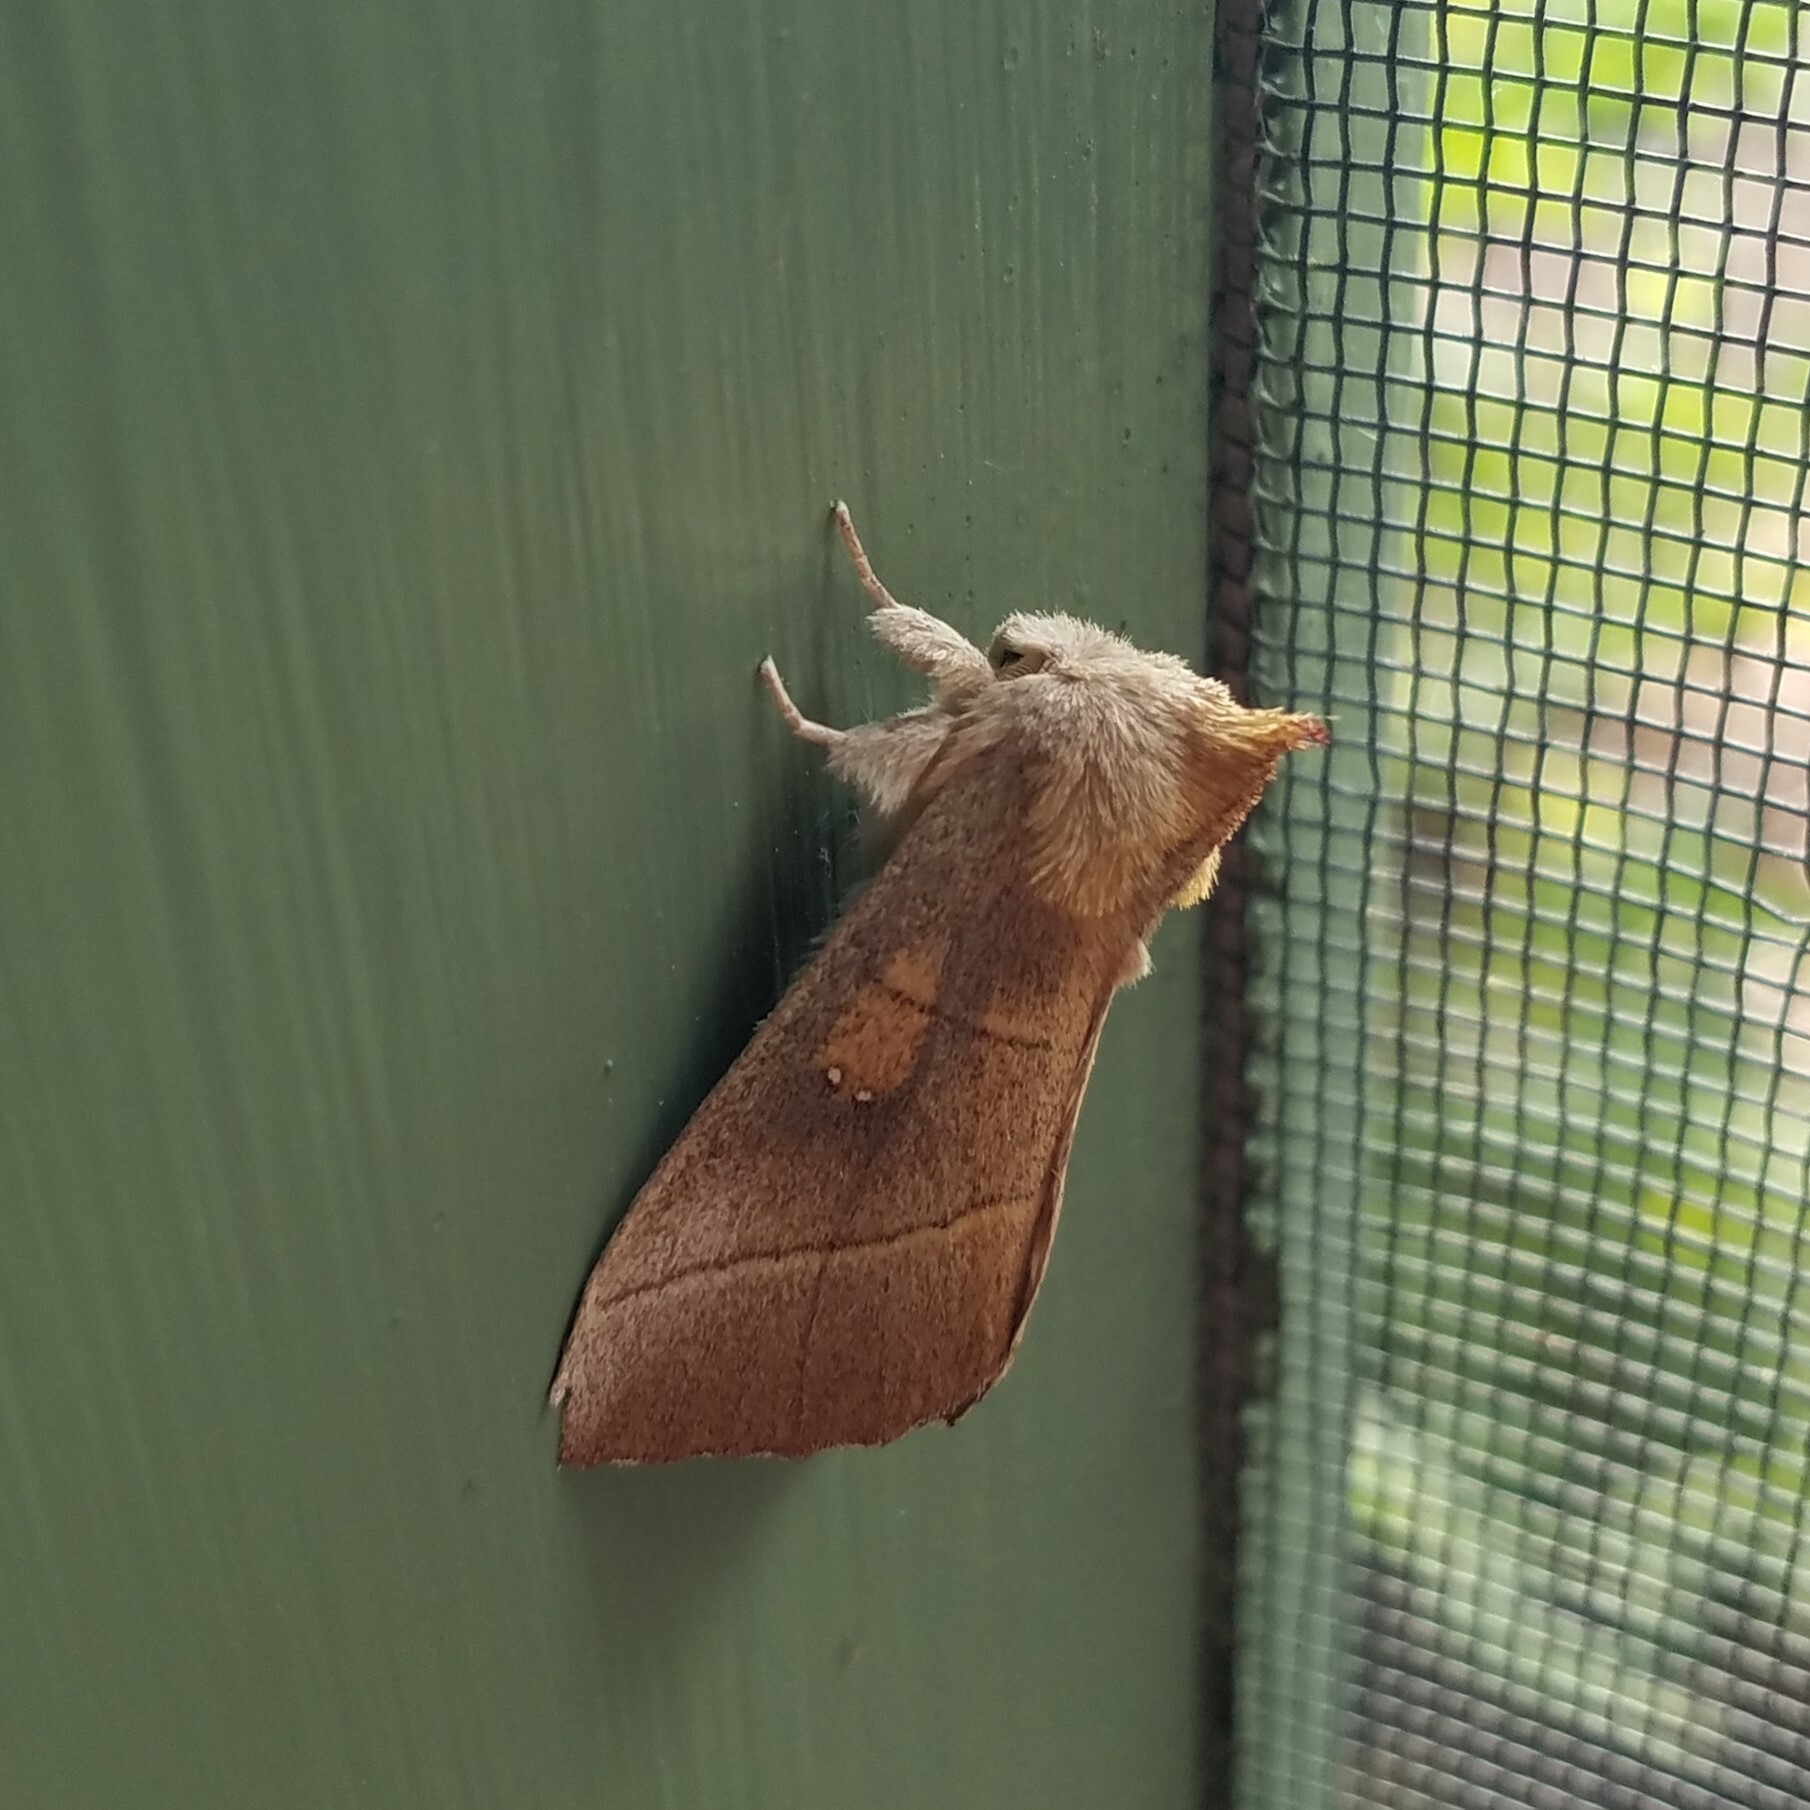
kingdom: Animalia
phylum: Arthropoda
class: Insecta
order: Lepidoptera
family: Notodontidae
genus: Nadata
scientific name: Nadata gibbosa
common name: White-dotted prominent
